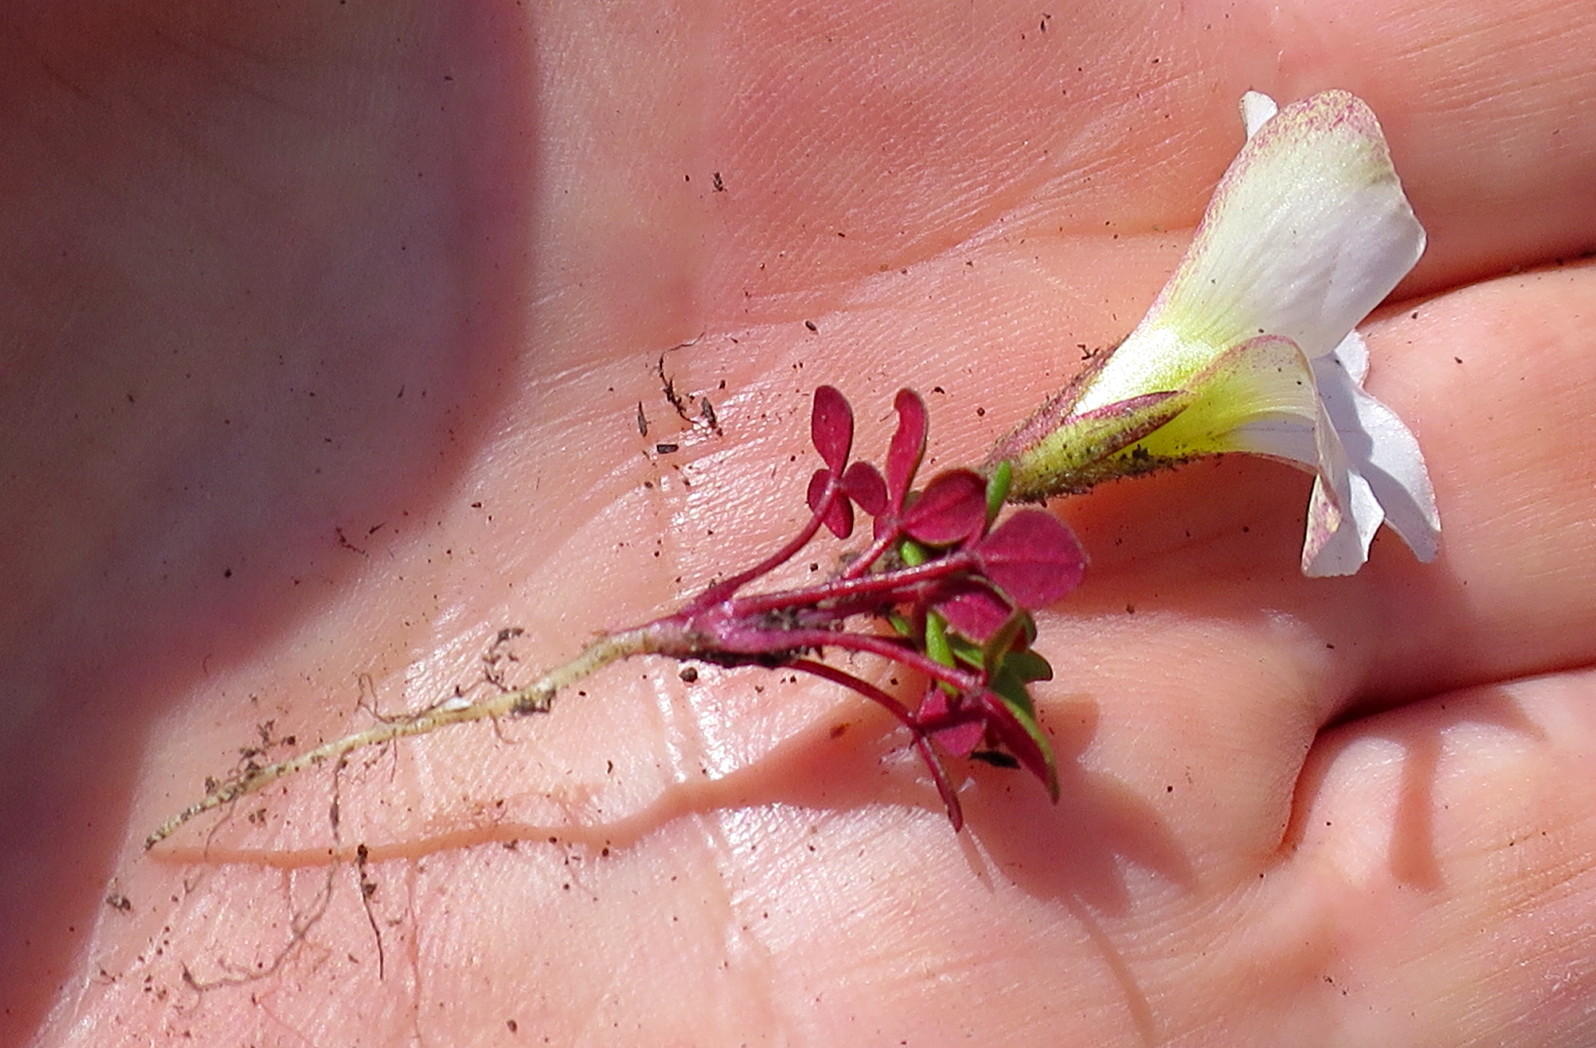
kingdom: Plantae
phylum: Tracheophyta
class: Magnoliopsida
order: Oxalidales
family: Oxalidaceae
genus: Oxalis
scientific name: Oxalis
